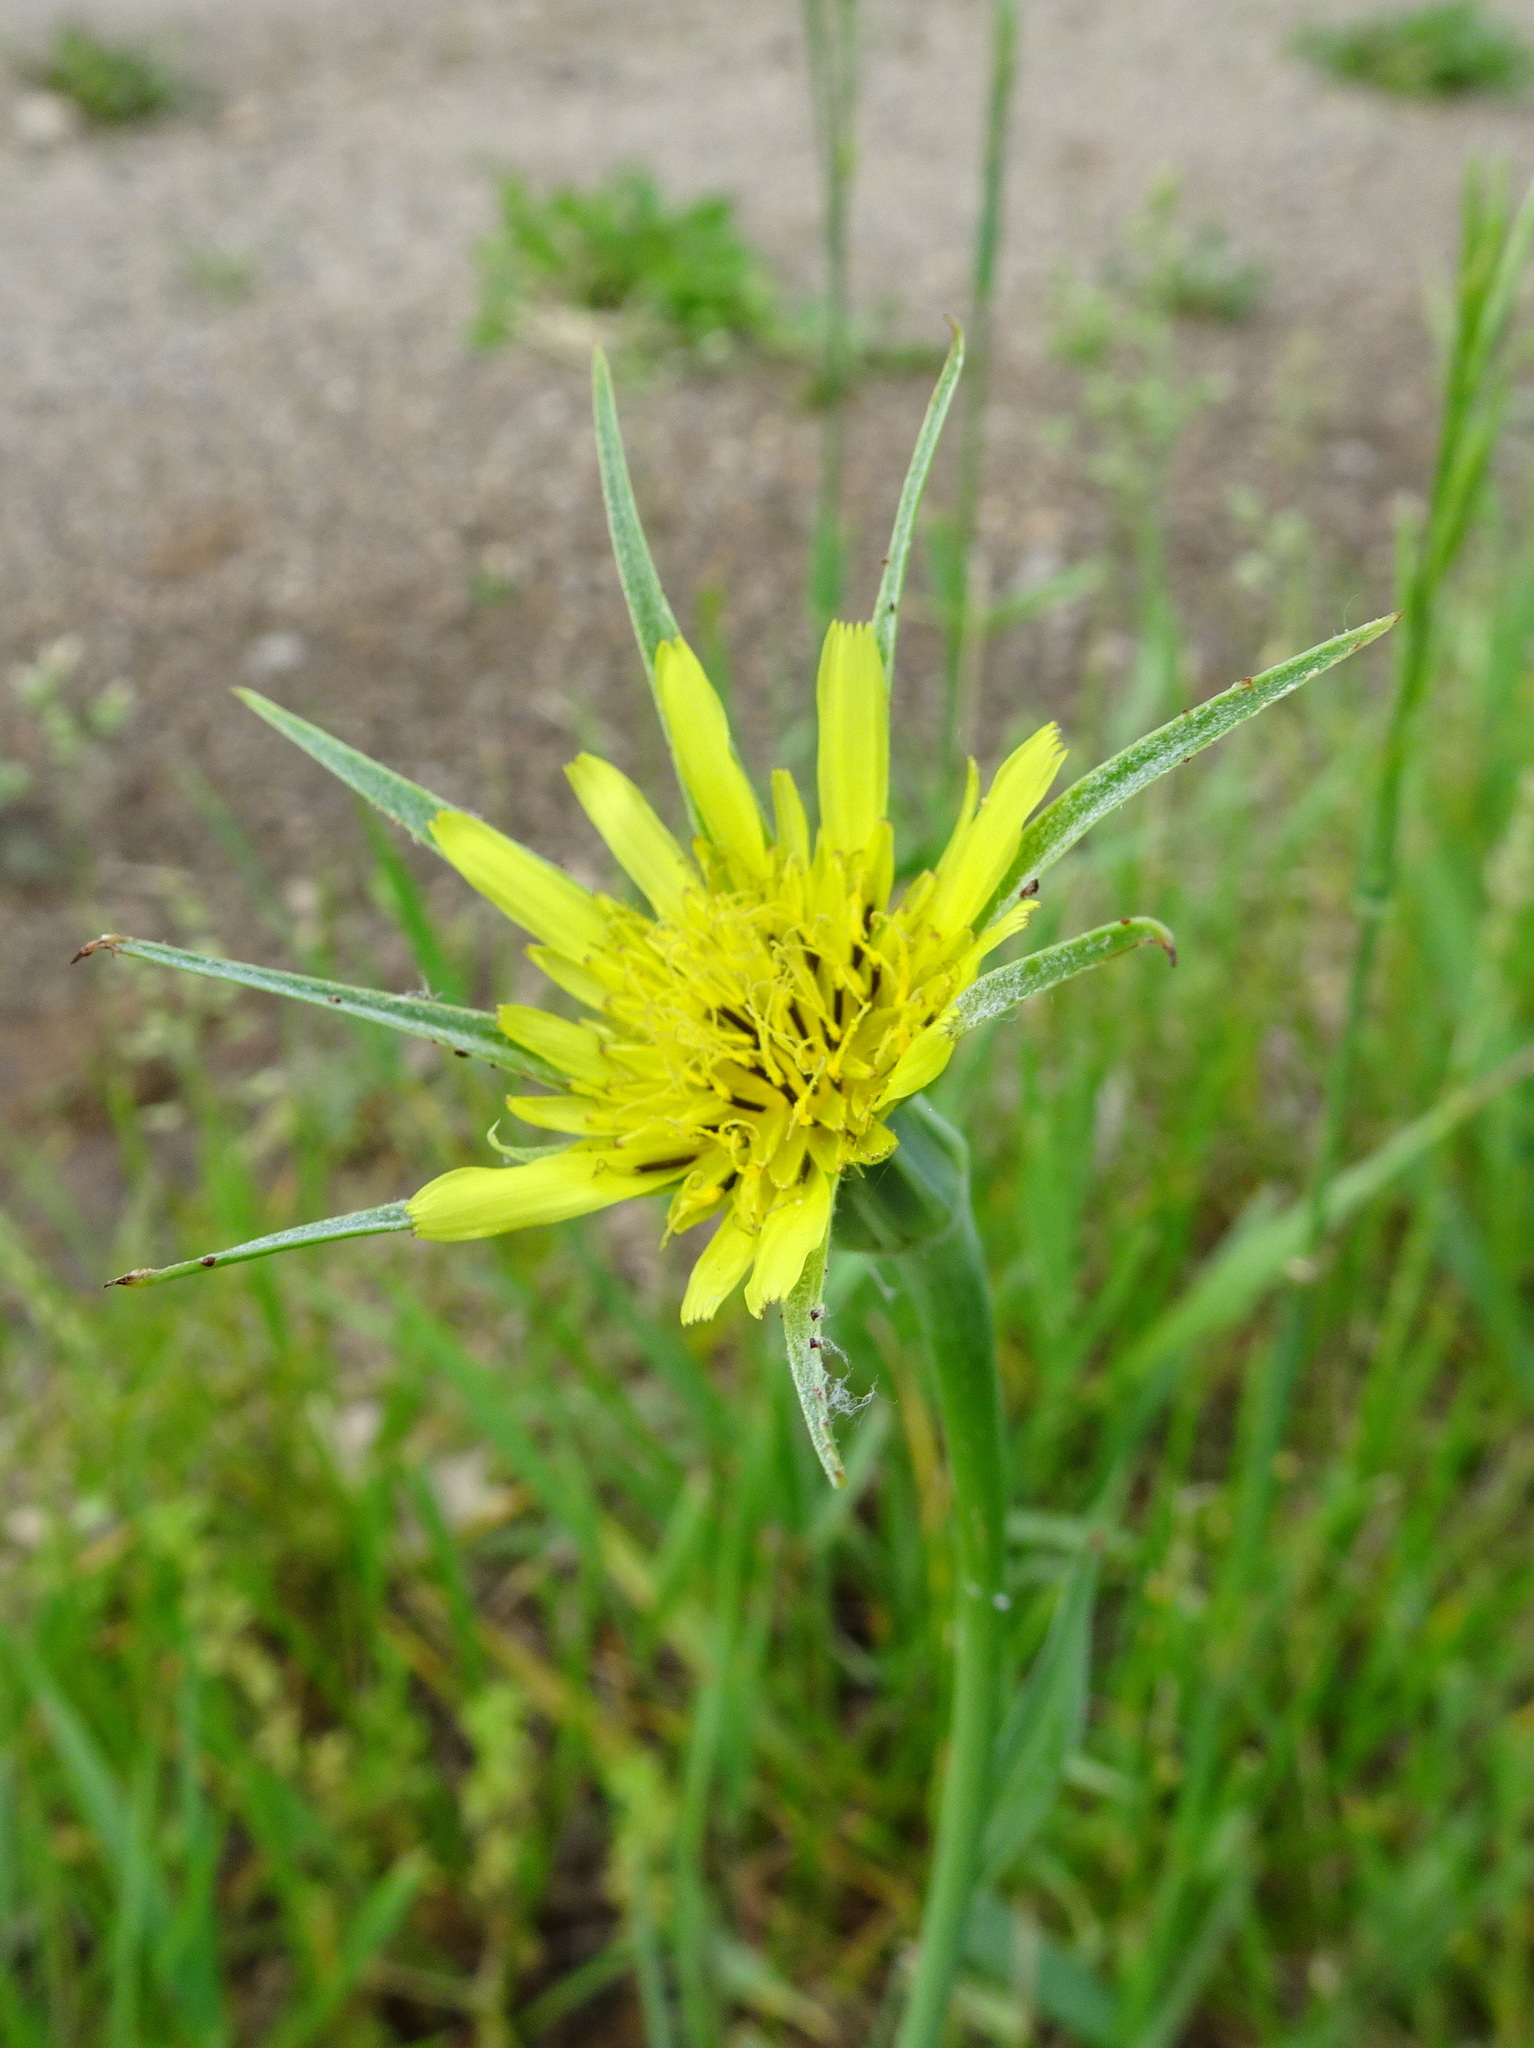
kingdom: Plantae
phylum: Tracheophyta
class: Magnoliopsida
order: Asterales
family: Asteraceae
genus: Tragopogon
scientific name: Tragopogon dubius
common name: Yellow salsify
